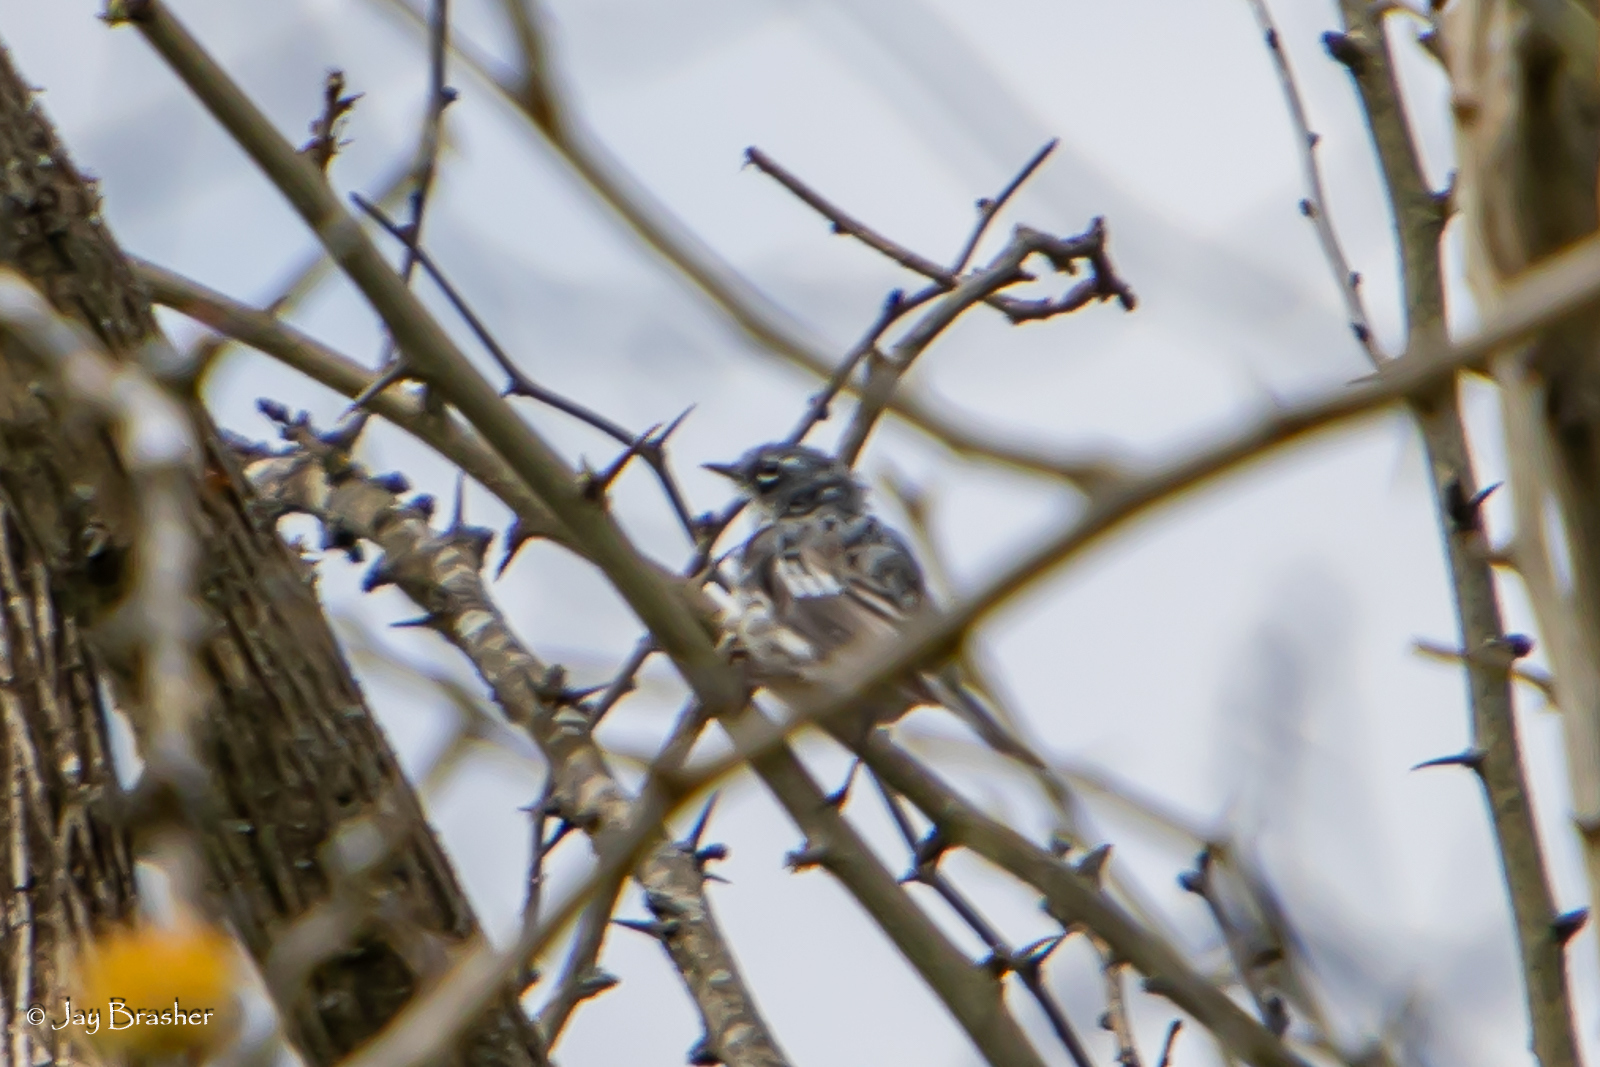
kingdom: Animalia
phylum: Chordata
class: Aves
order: Passeriformes
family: Parulidae
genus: Setophaga
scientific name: Setophaga coronata
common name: Myrtle warbler
